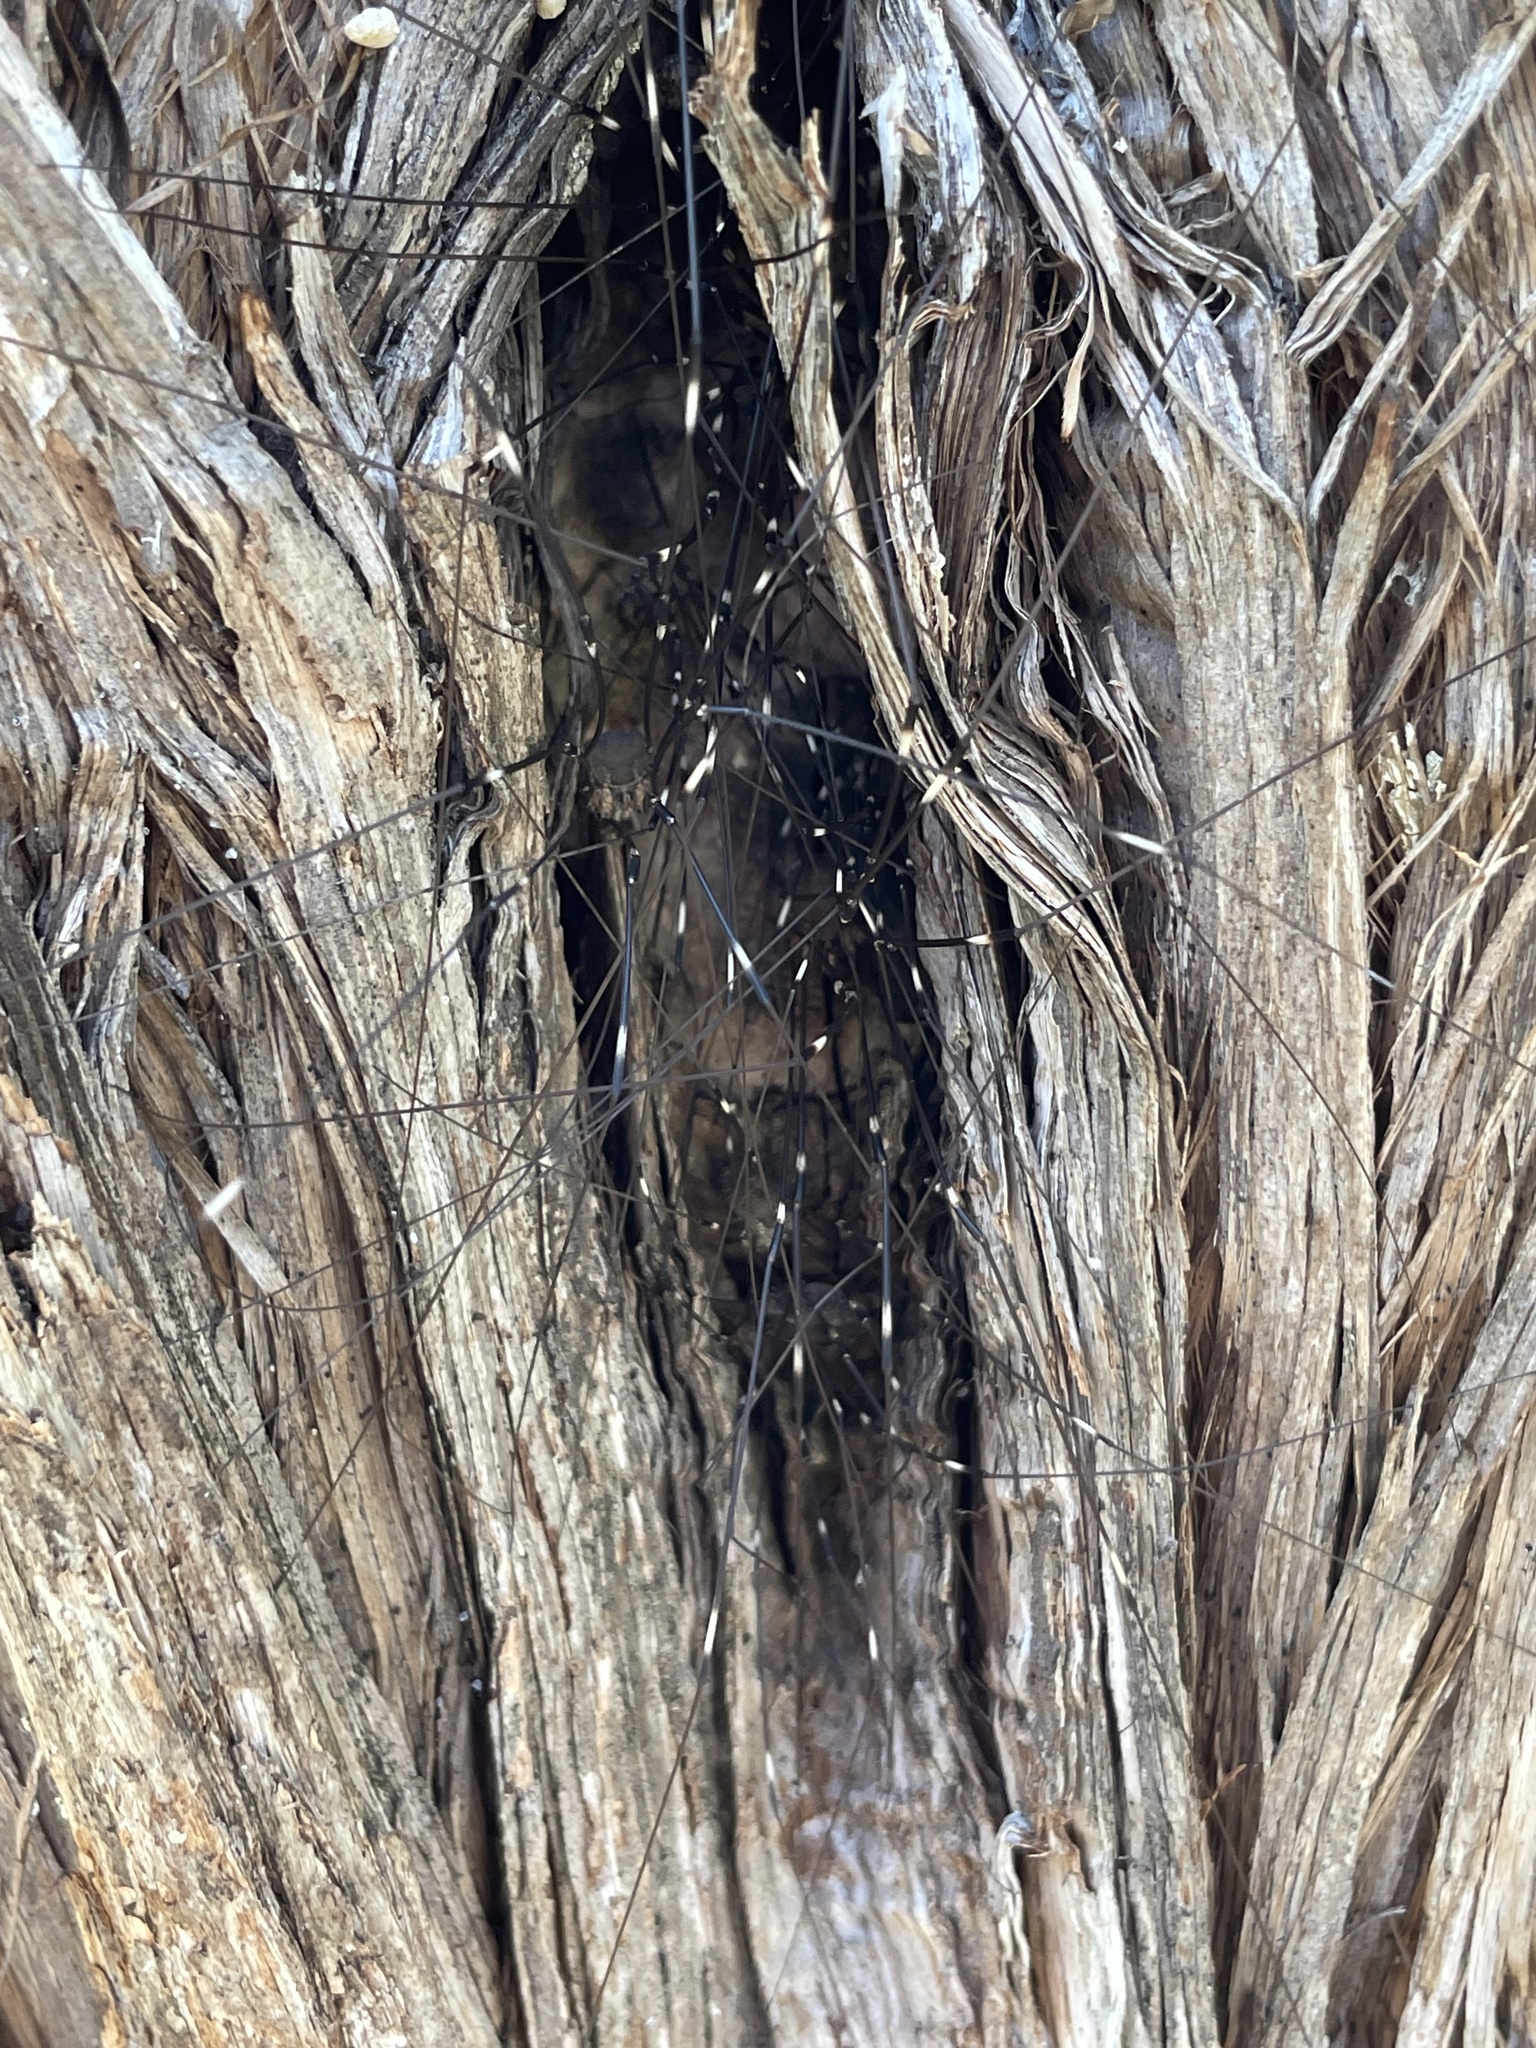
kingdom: Animalia
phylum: Arthropoda
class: Arachnida
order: Opiliones
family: Sclerosomatidae
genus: Leiobunum
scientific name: Leiobunum townsendi
